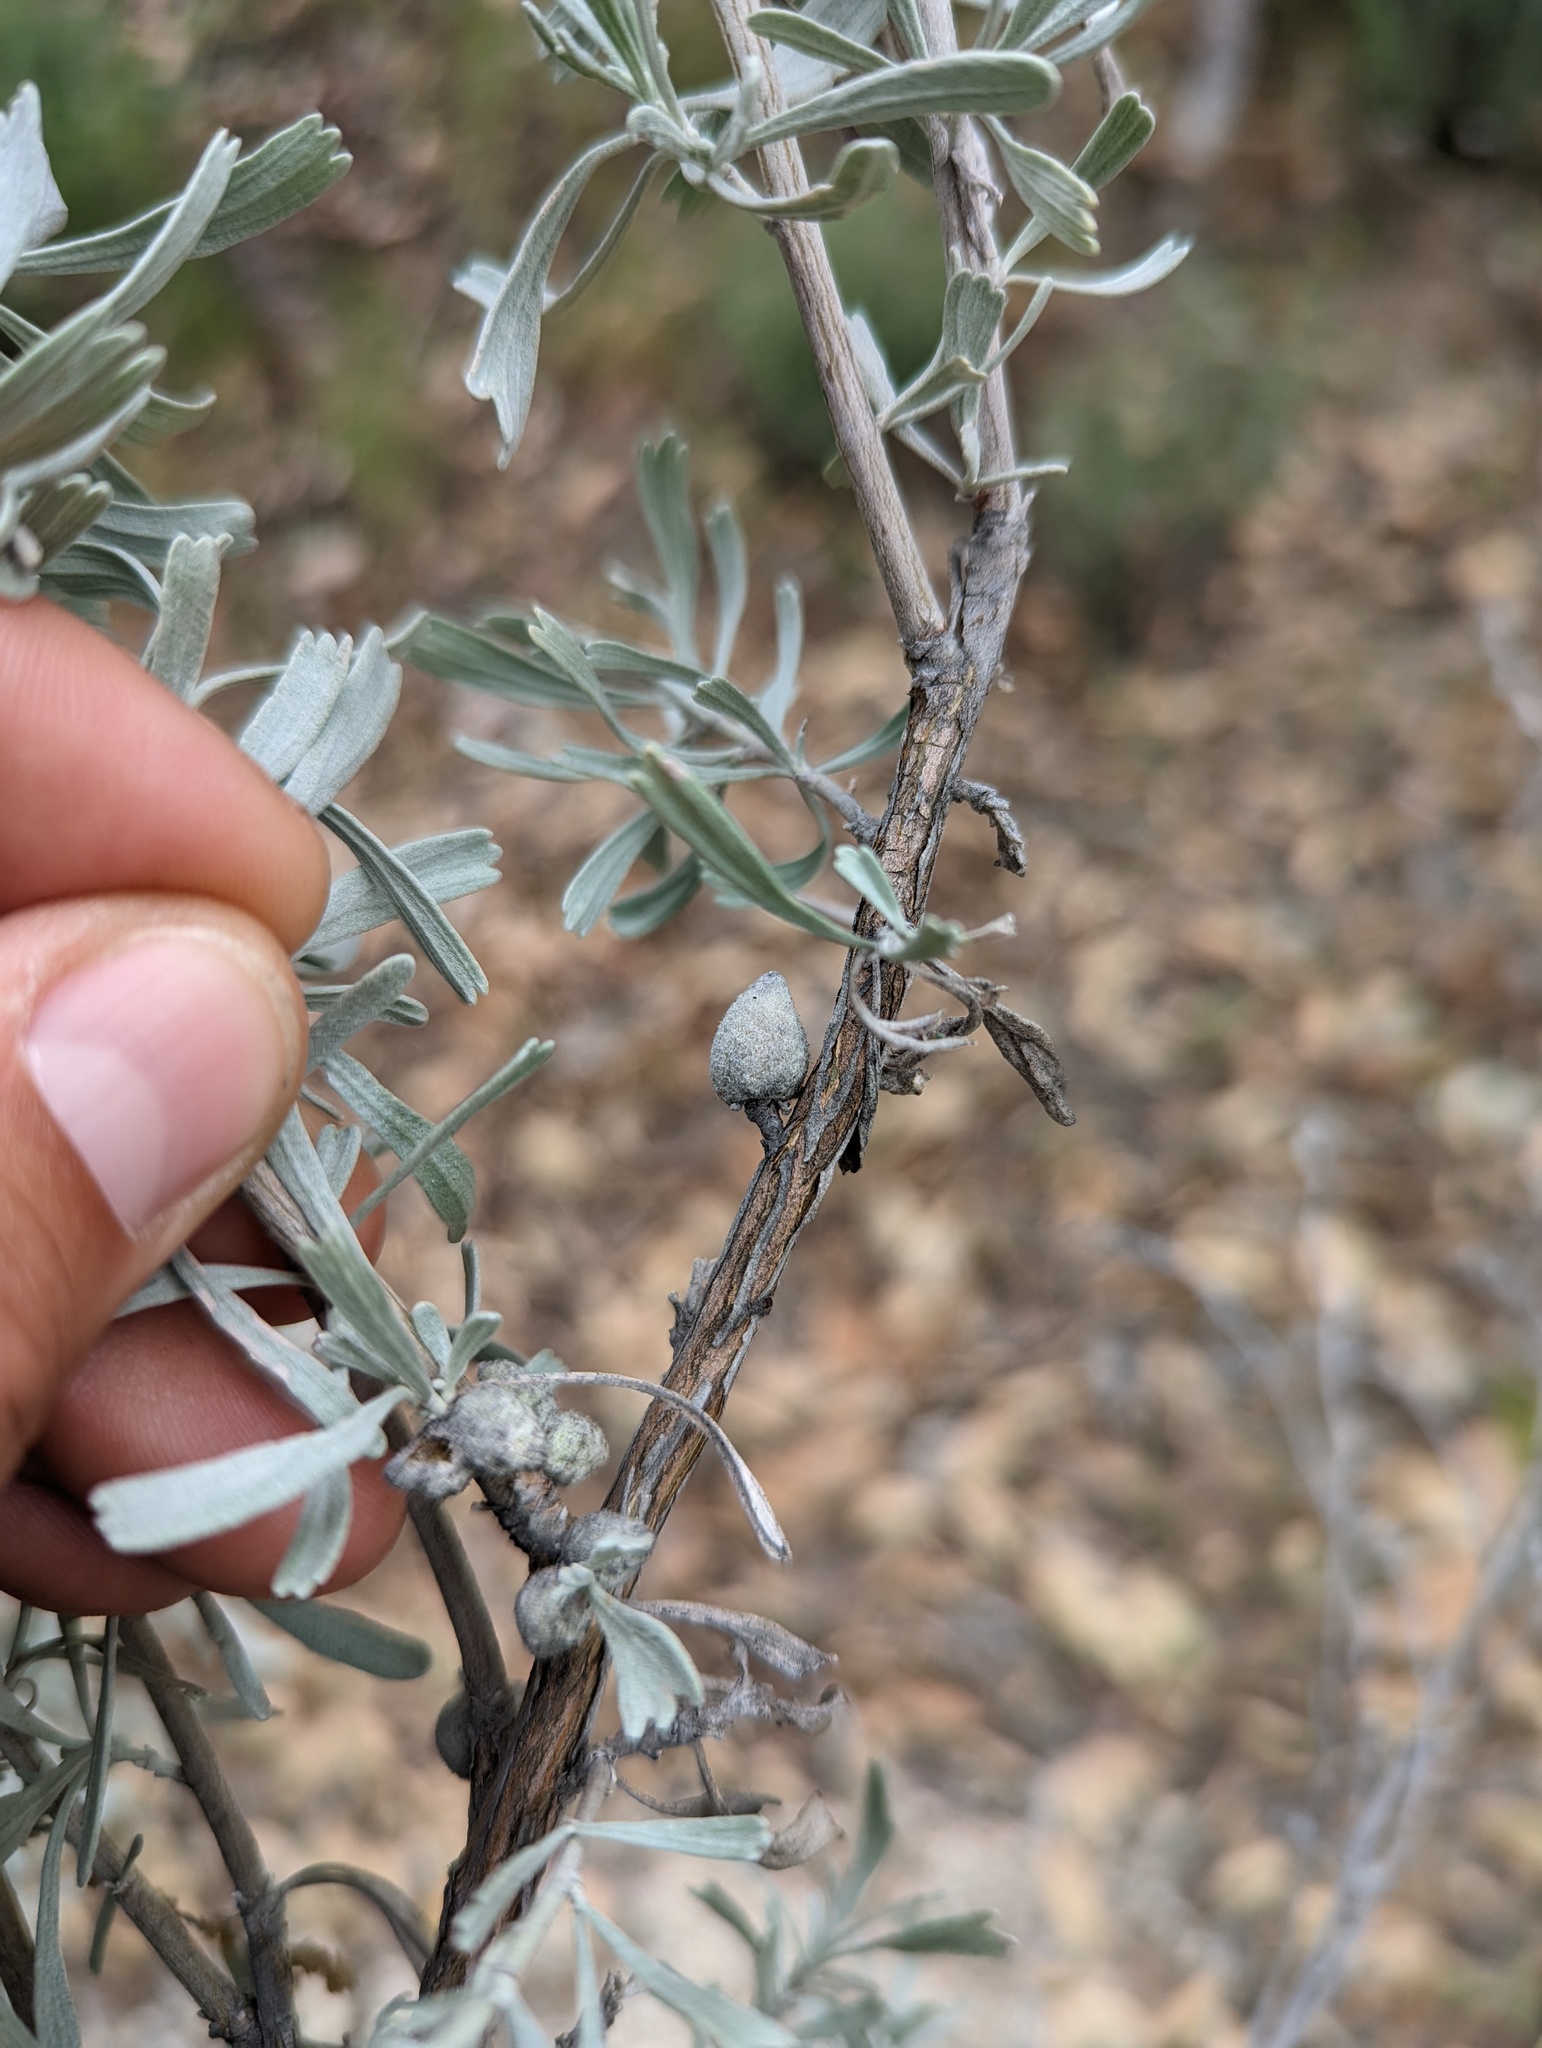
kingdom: Animalia
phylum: Arthropoda
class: Insecta
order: Diptera
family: Cecidomyiidae
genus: Rhopalomyia
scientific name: Rhopalomyia nucula
